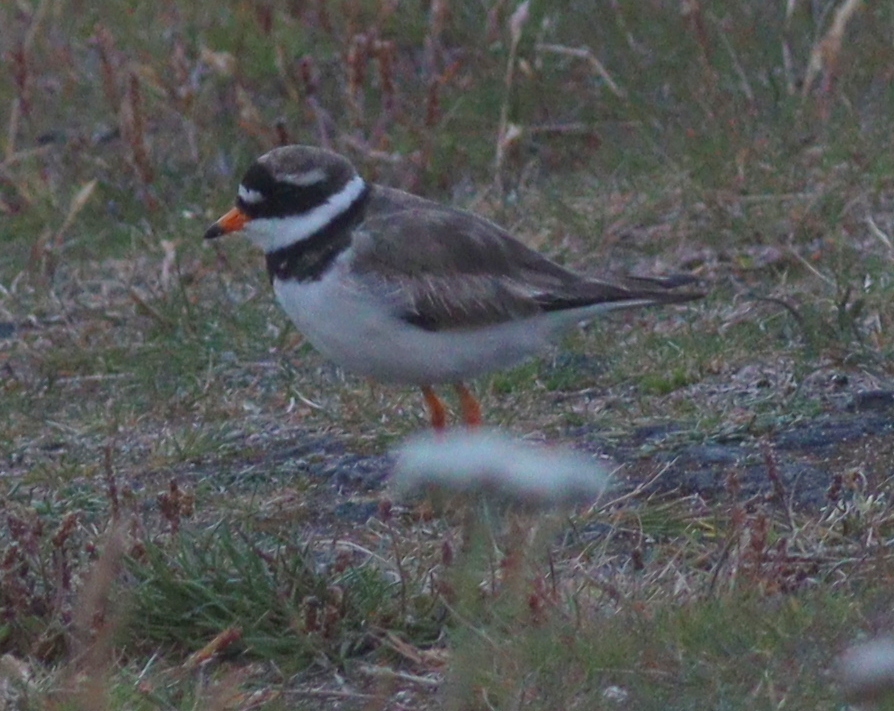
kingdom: Animalia
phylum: Chordata
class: Aves
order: Charadriiformes
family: Charadriidae
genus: Charadrius
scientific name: Charadrius hiaticula
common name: Common ringed plover
